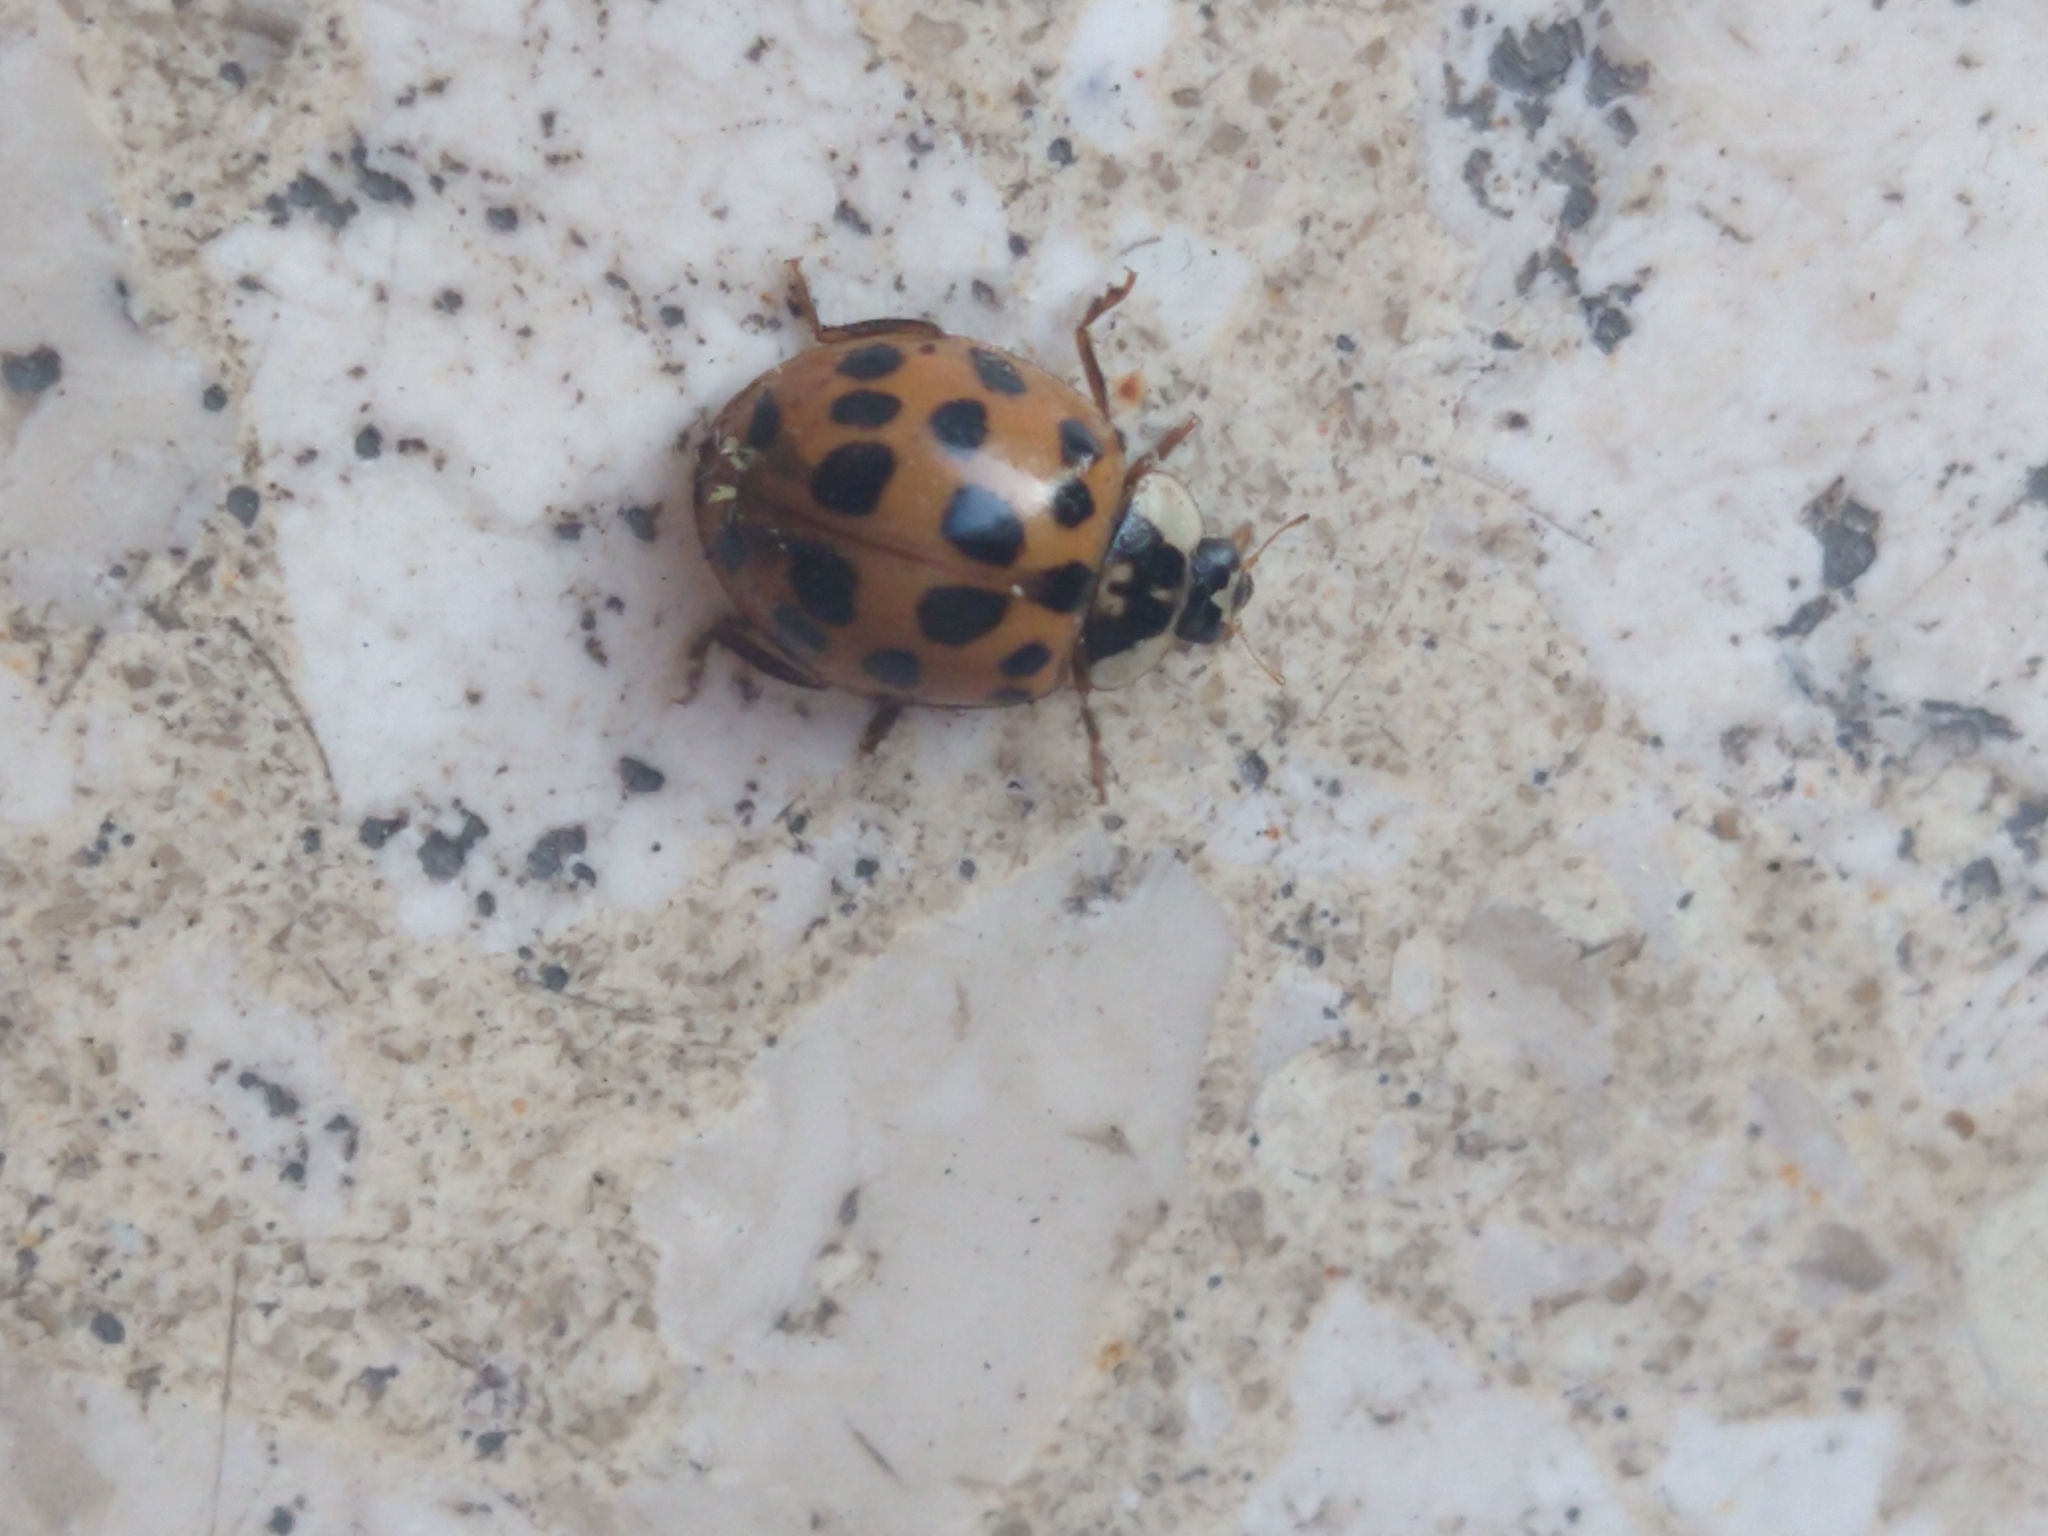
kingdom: Animalia
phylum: Arthropoda
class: Insecta
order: Coleoptera
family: Coccinellidae
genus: Harmonia
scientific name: Harmonia axyridis
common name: Harlequin ladybird
